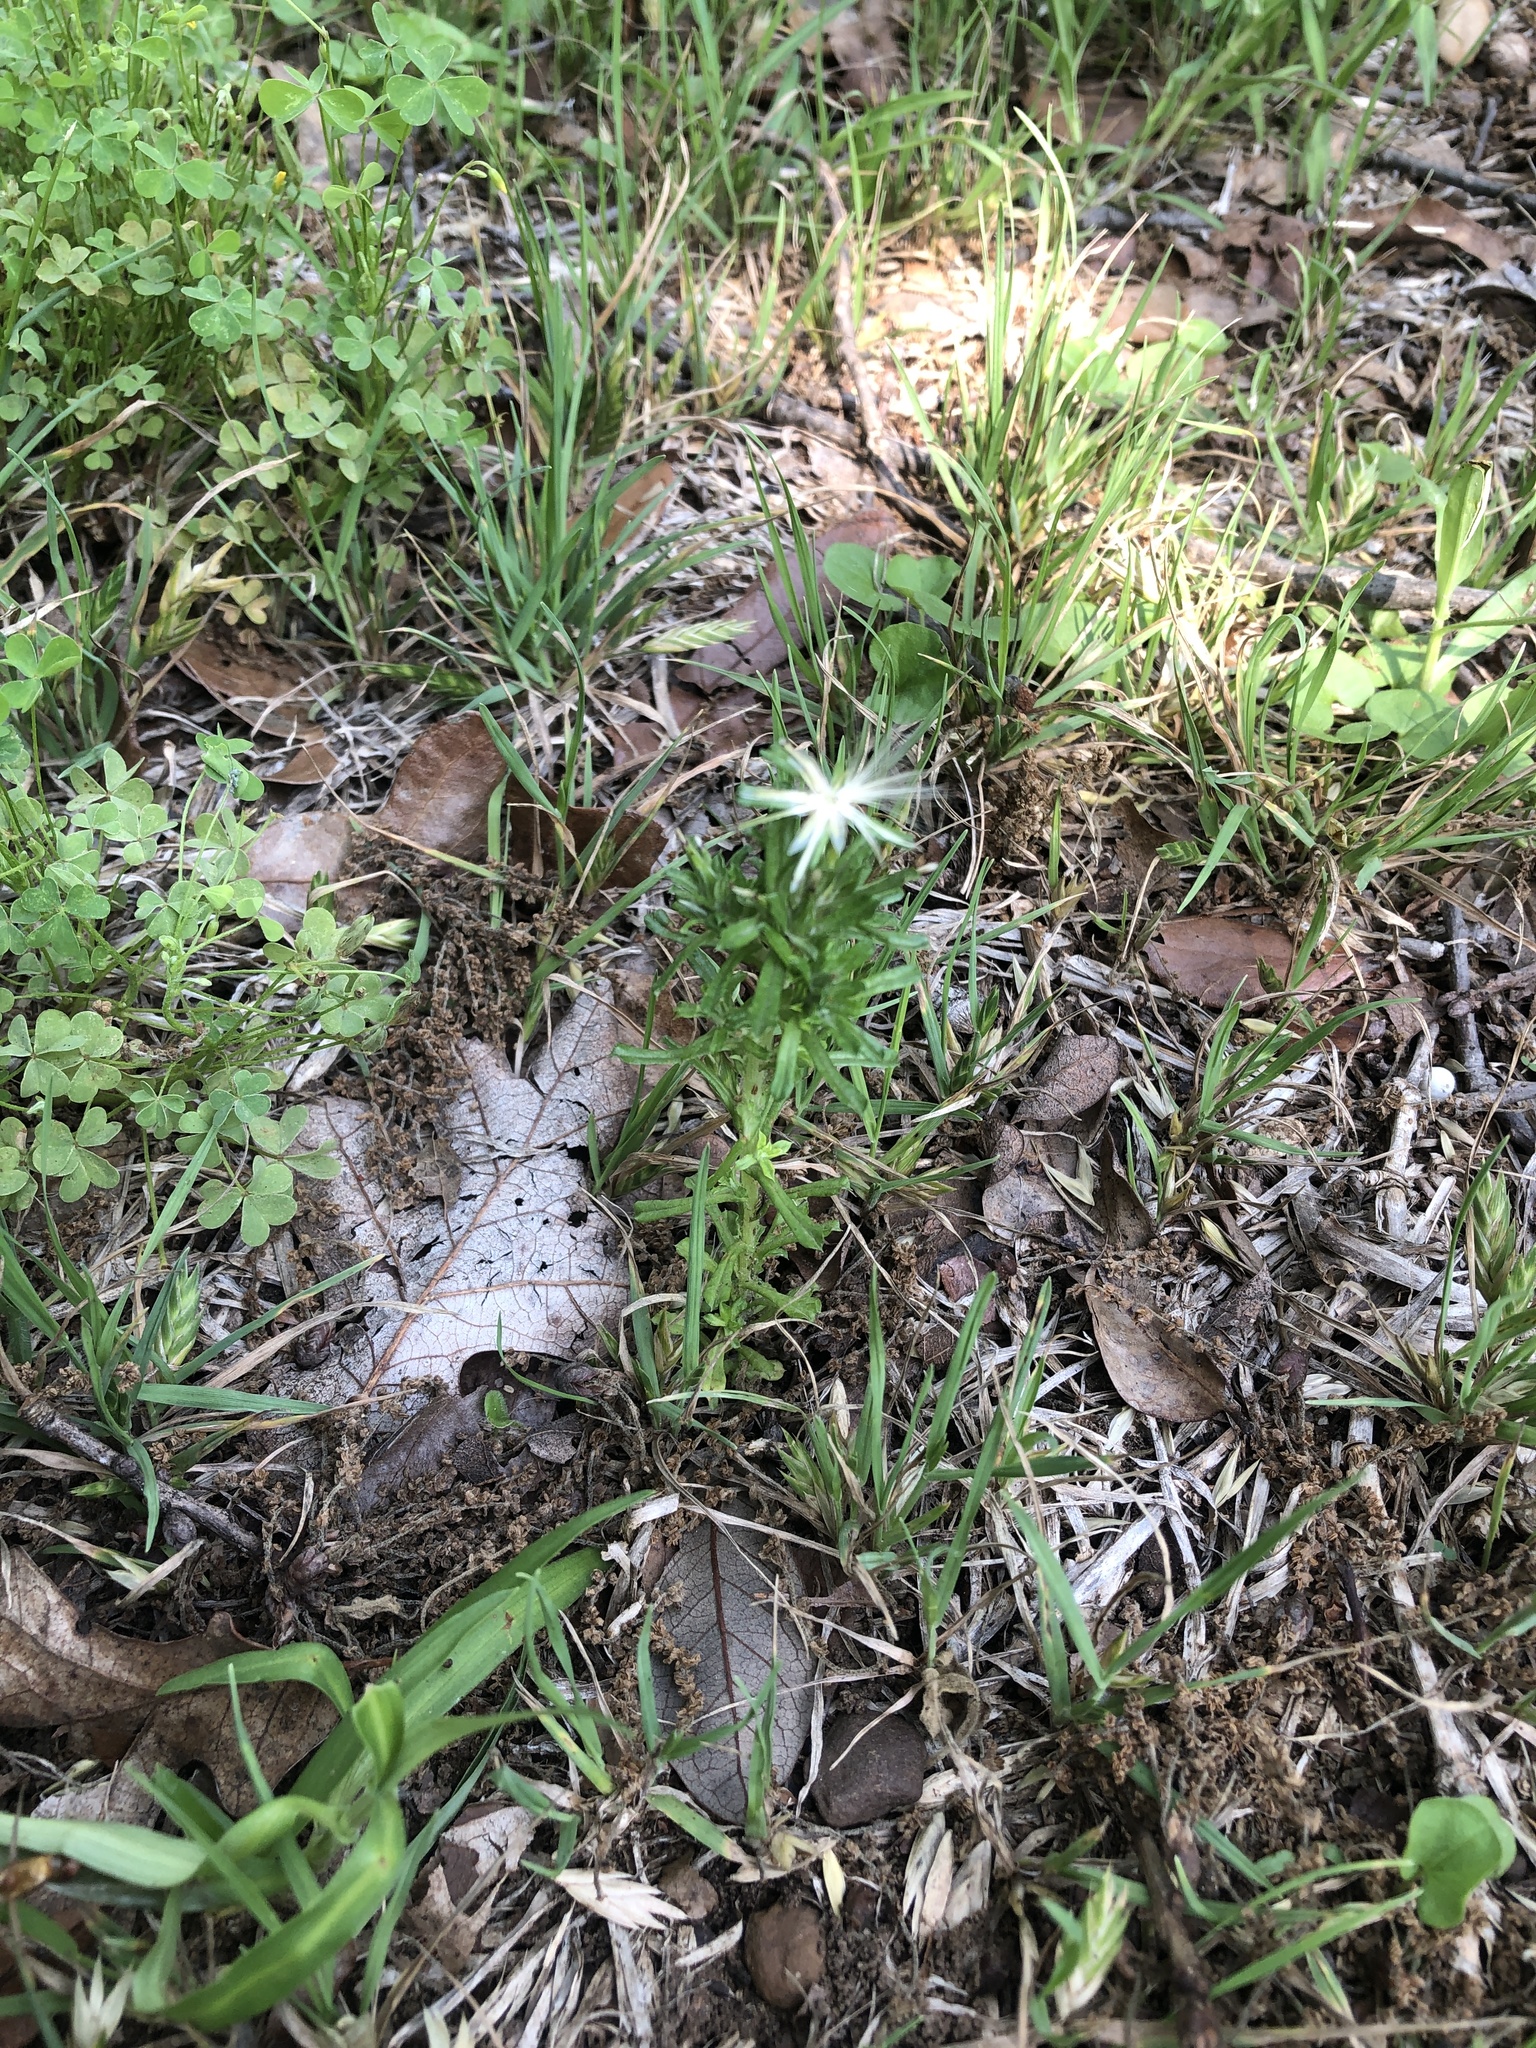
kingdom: Plantae
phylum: Tracheophyta
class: Magnoliopsida
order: Asterales
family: Asteraceae
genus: Facelis
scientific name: Facelis retusa
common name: Annual trampweed
